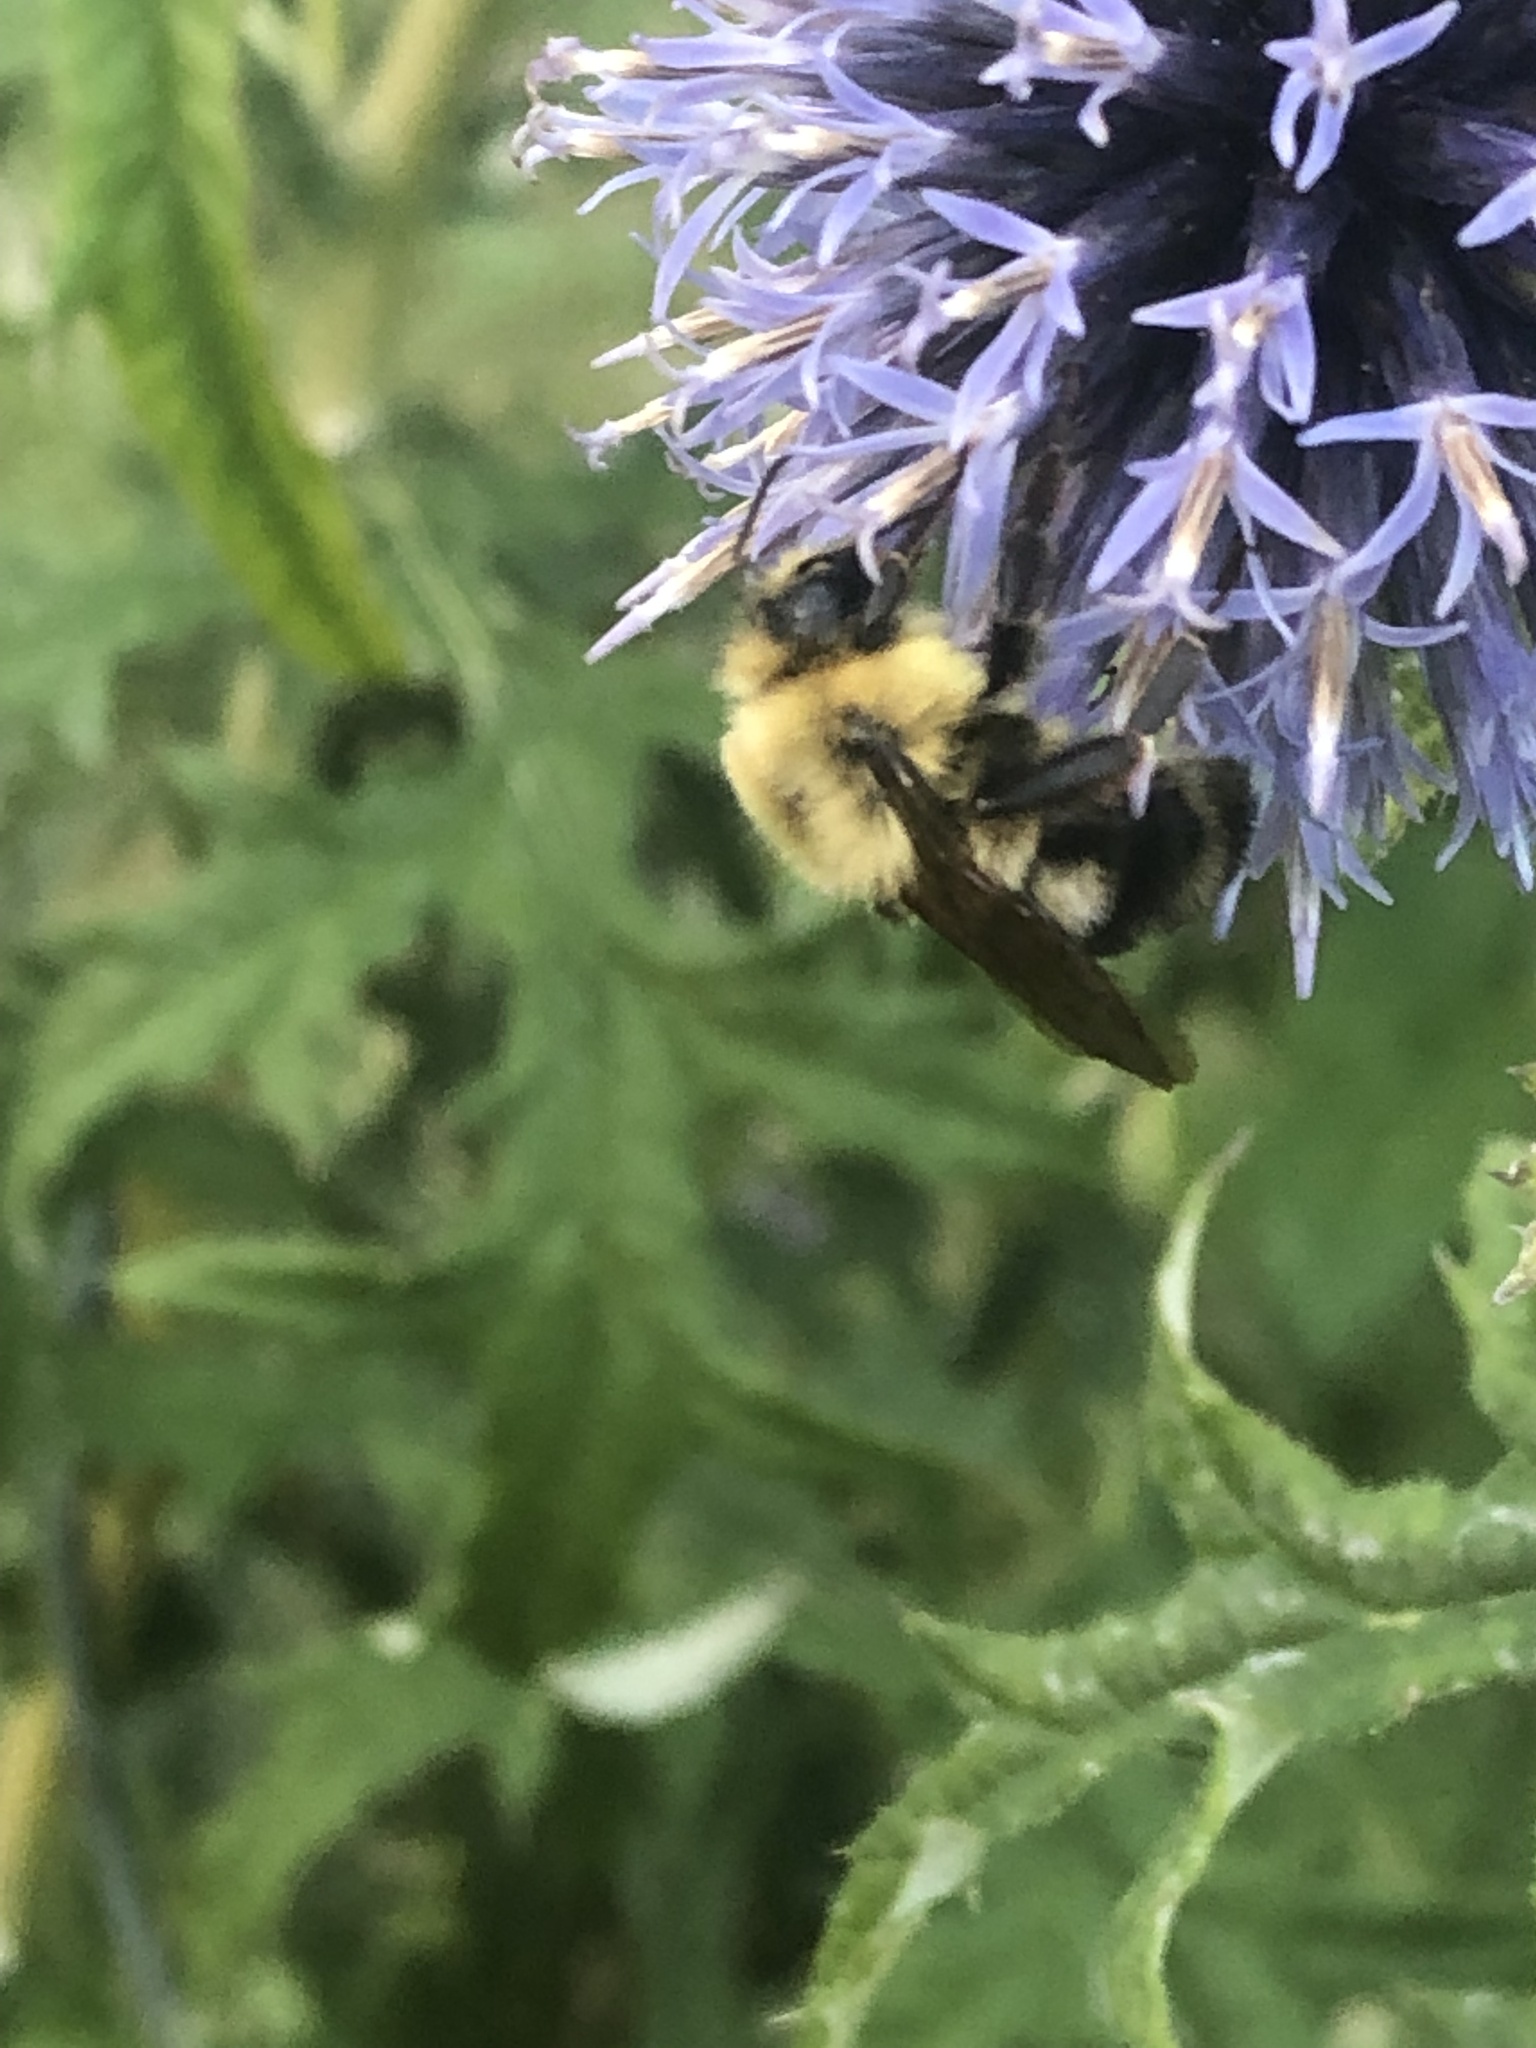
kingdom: Animalia
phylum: Arthropoda
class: Insecta
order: Hymenoptera
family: Apidae
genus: Bombus
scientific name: Bombus bimaculatus
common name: Two-spotted bumble bee
